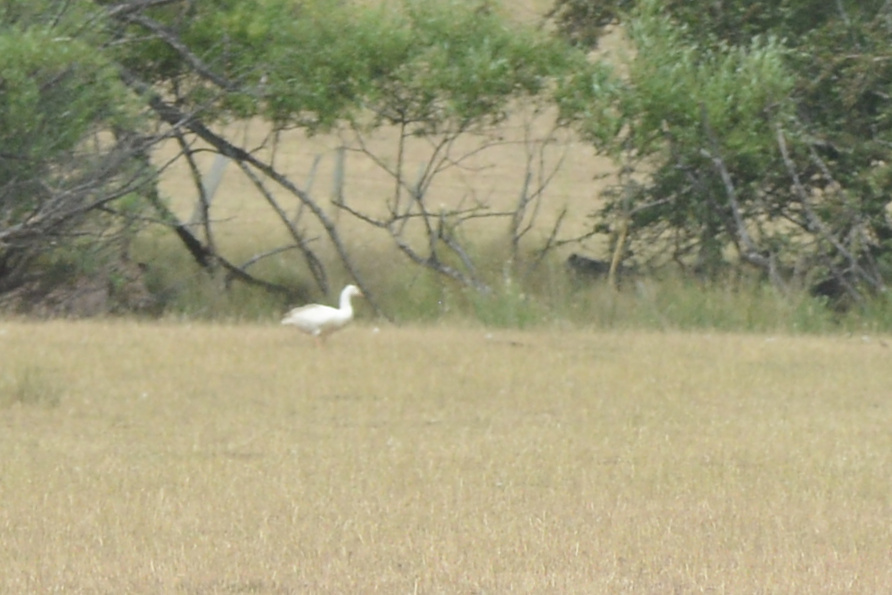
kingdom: Animalia
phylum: Chordata
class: Aves
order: Anseriformes
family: Anatidae
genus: Anser
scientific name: Anser anser
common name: Greylag goose
